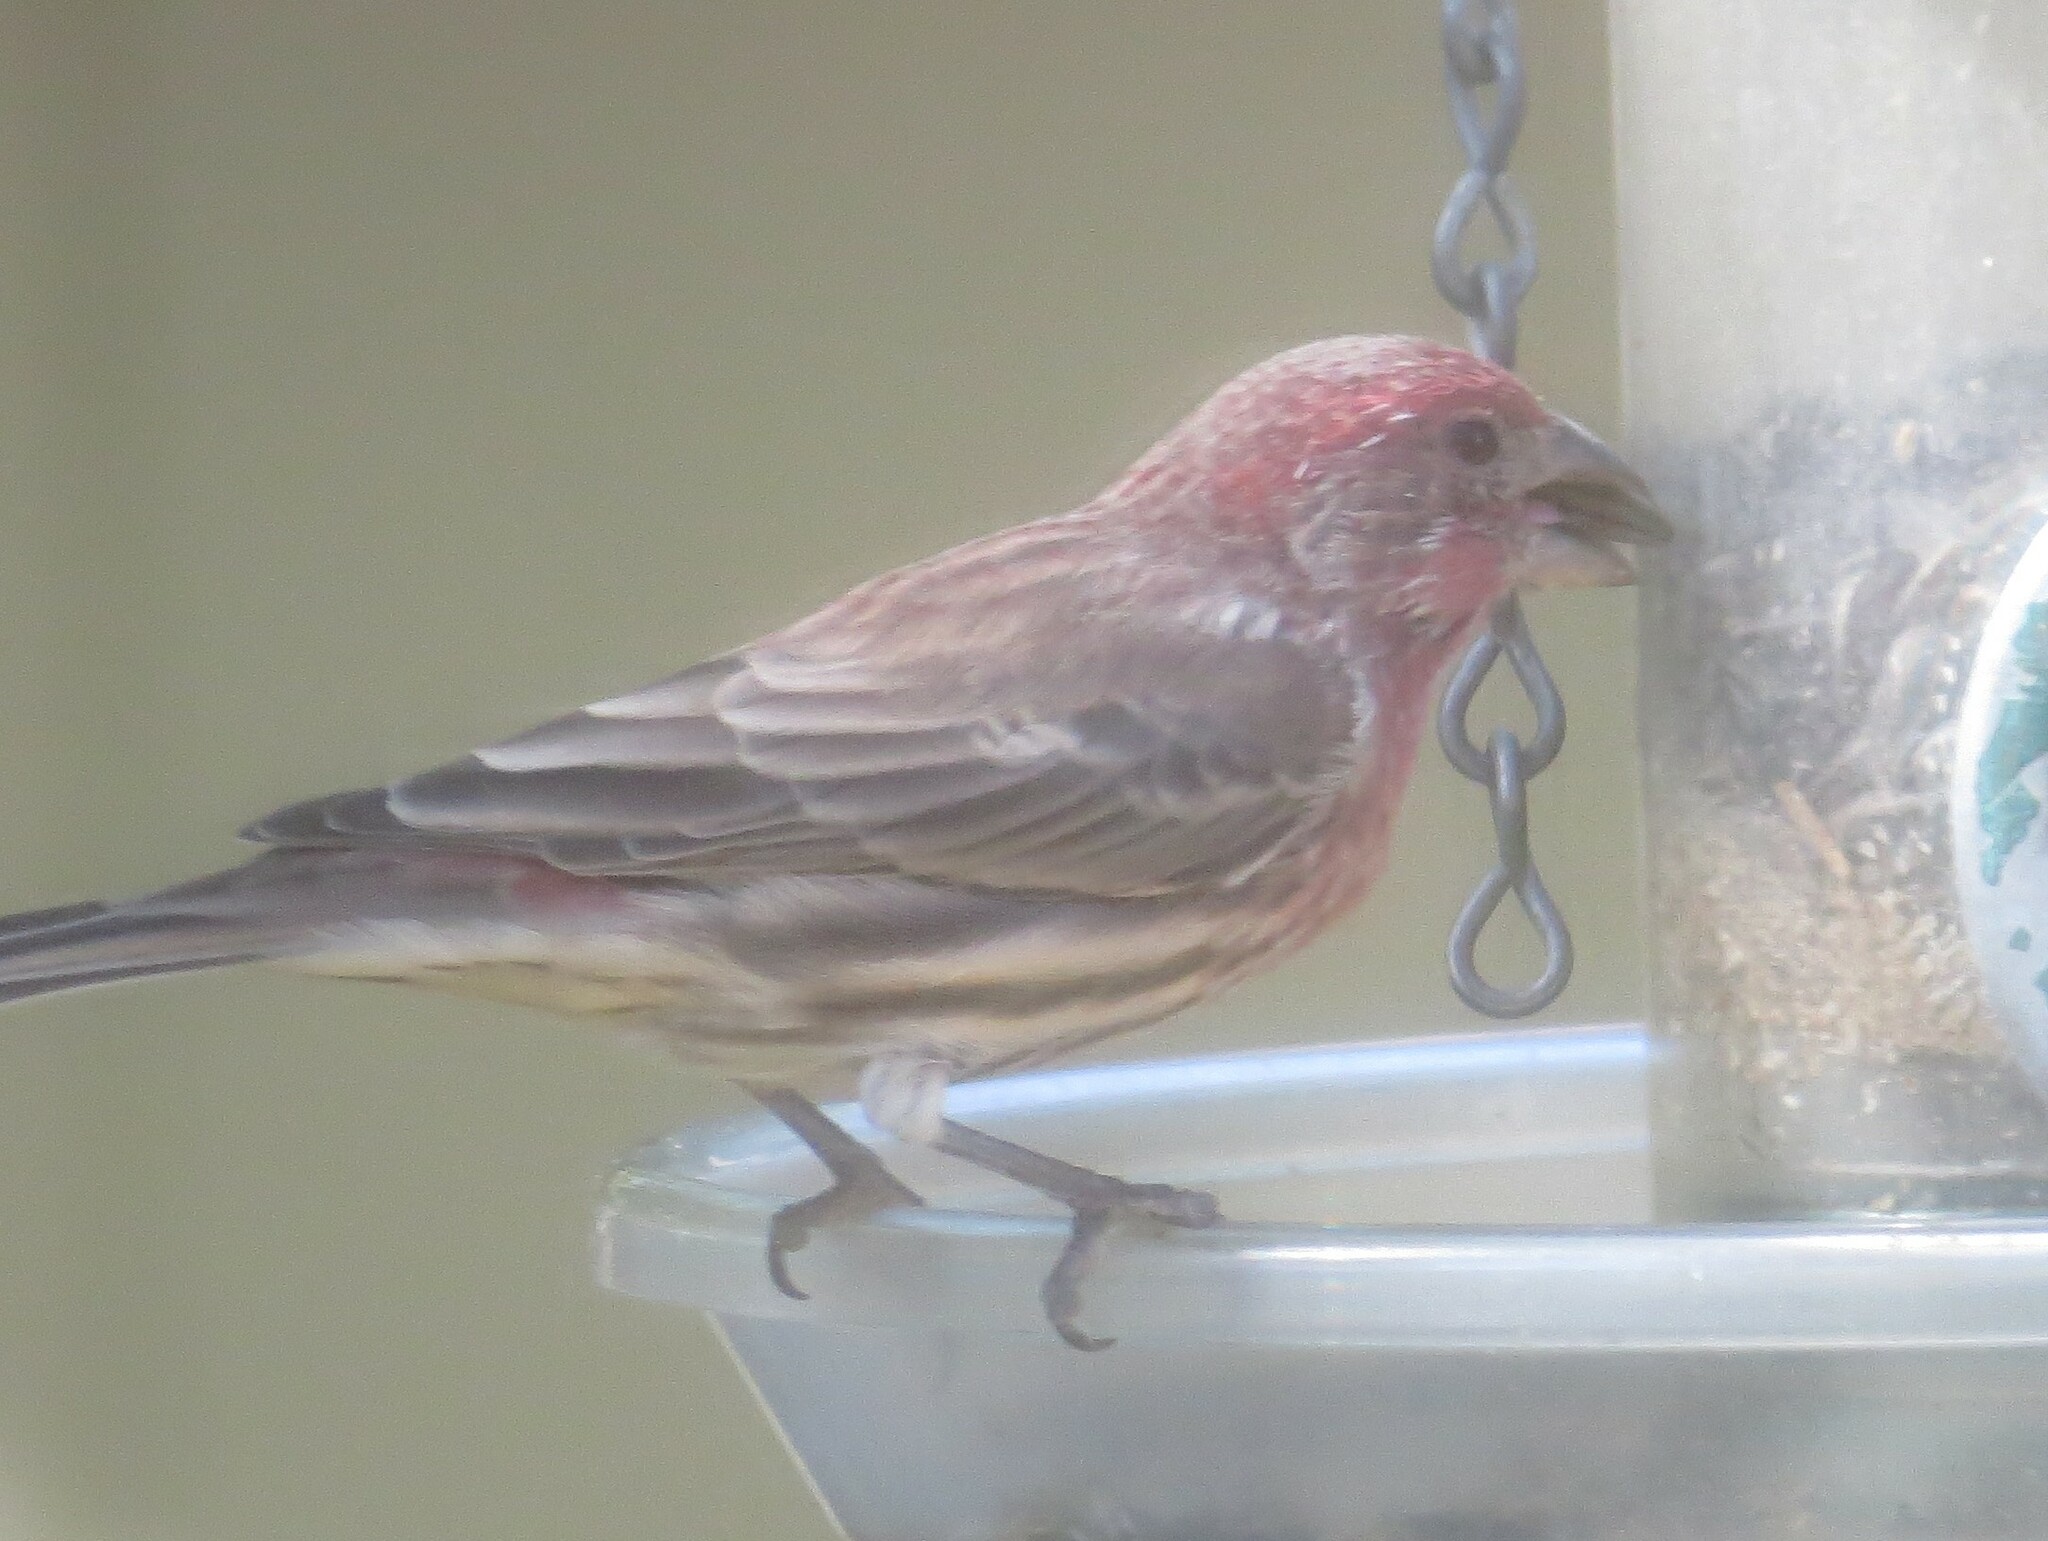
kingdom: Animalia
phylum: Chordata
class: Aves
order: Passeriformes
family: Fringillidae
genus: Haemorhous
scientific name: Haemorhous mexicanus
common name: House finch
